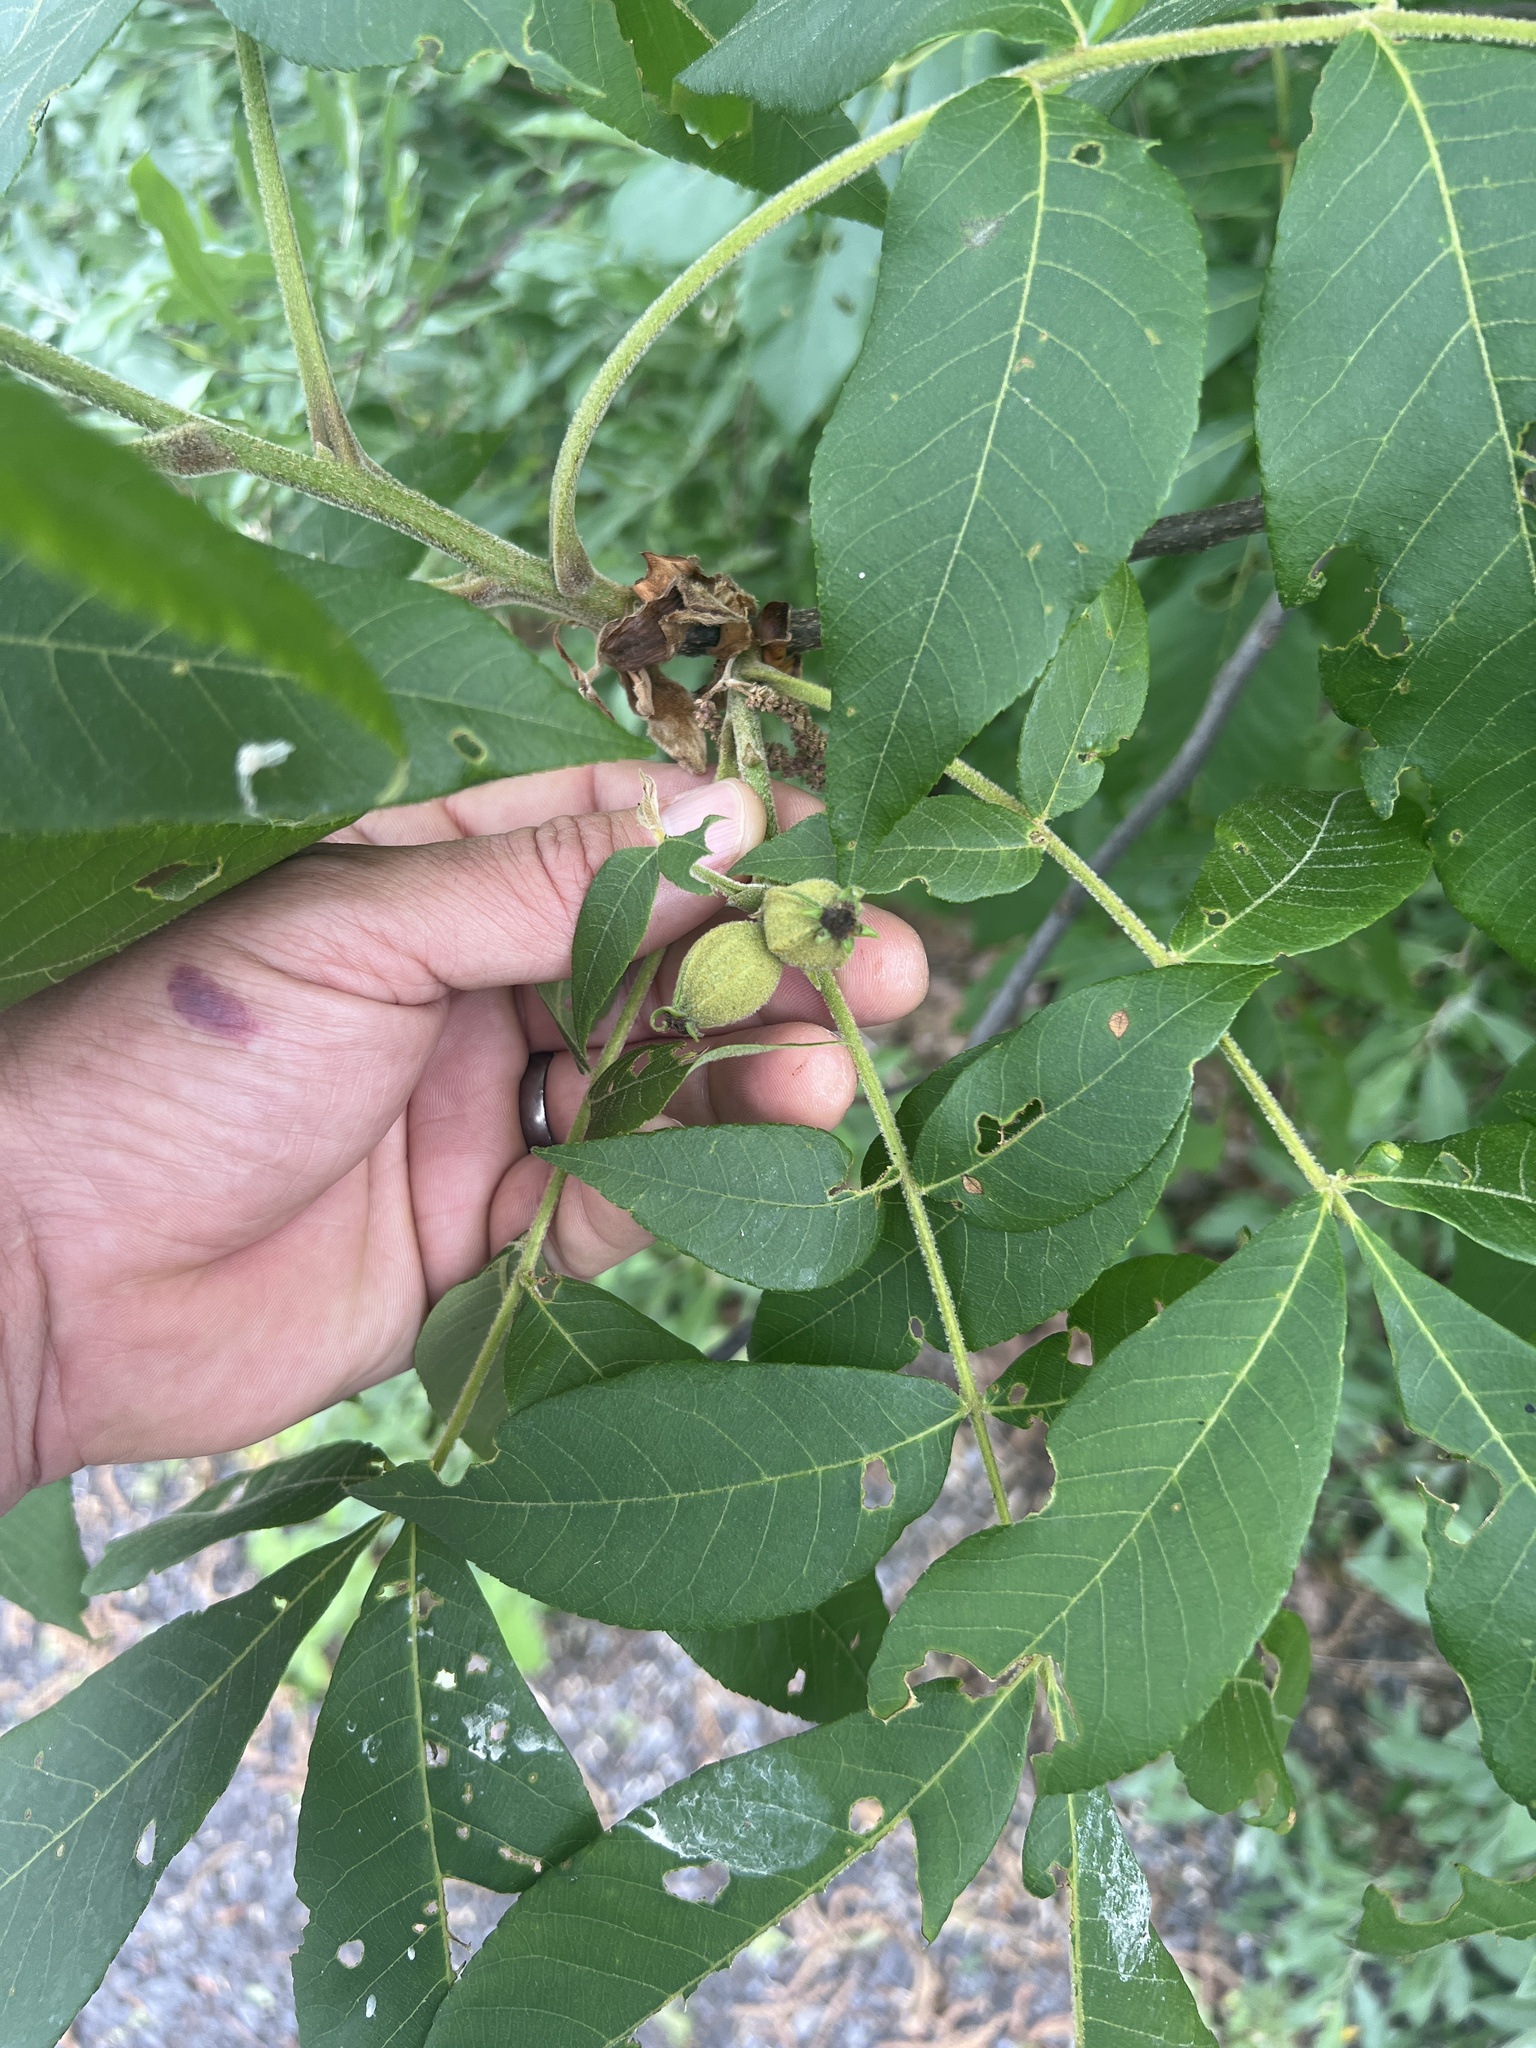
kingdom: Plantae
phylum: Tracheophyta
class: Magnoliopsida
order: Fagales
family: Juglandaceae
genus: Carya
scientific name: Carya alba
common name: Mockernut hickory
